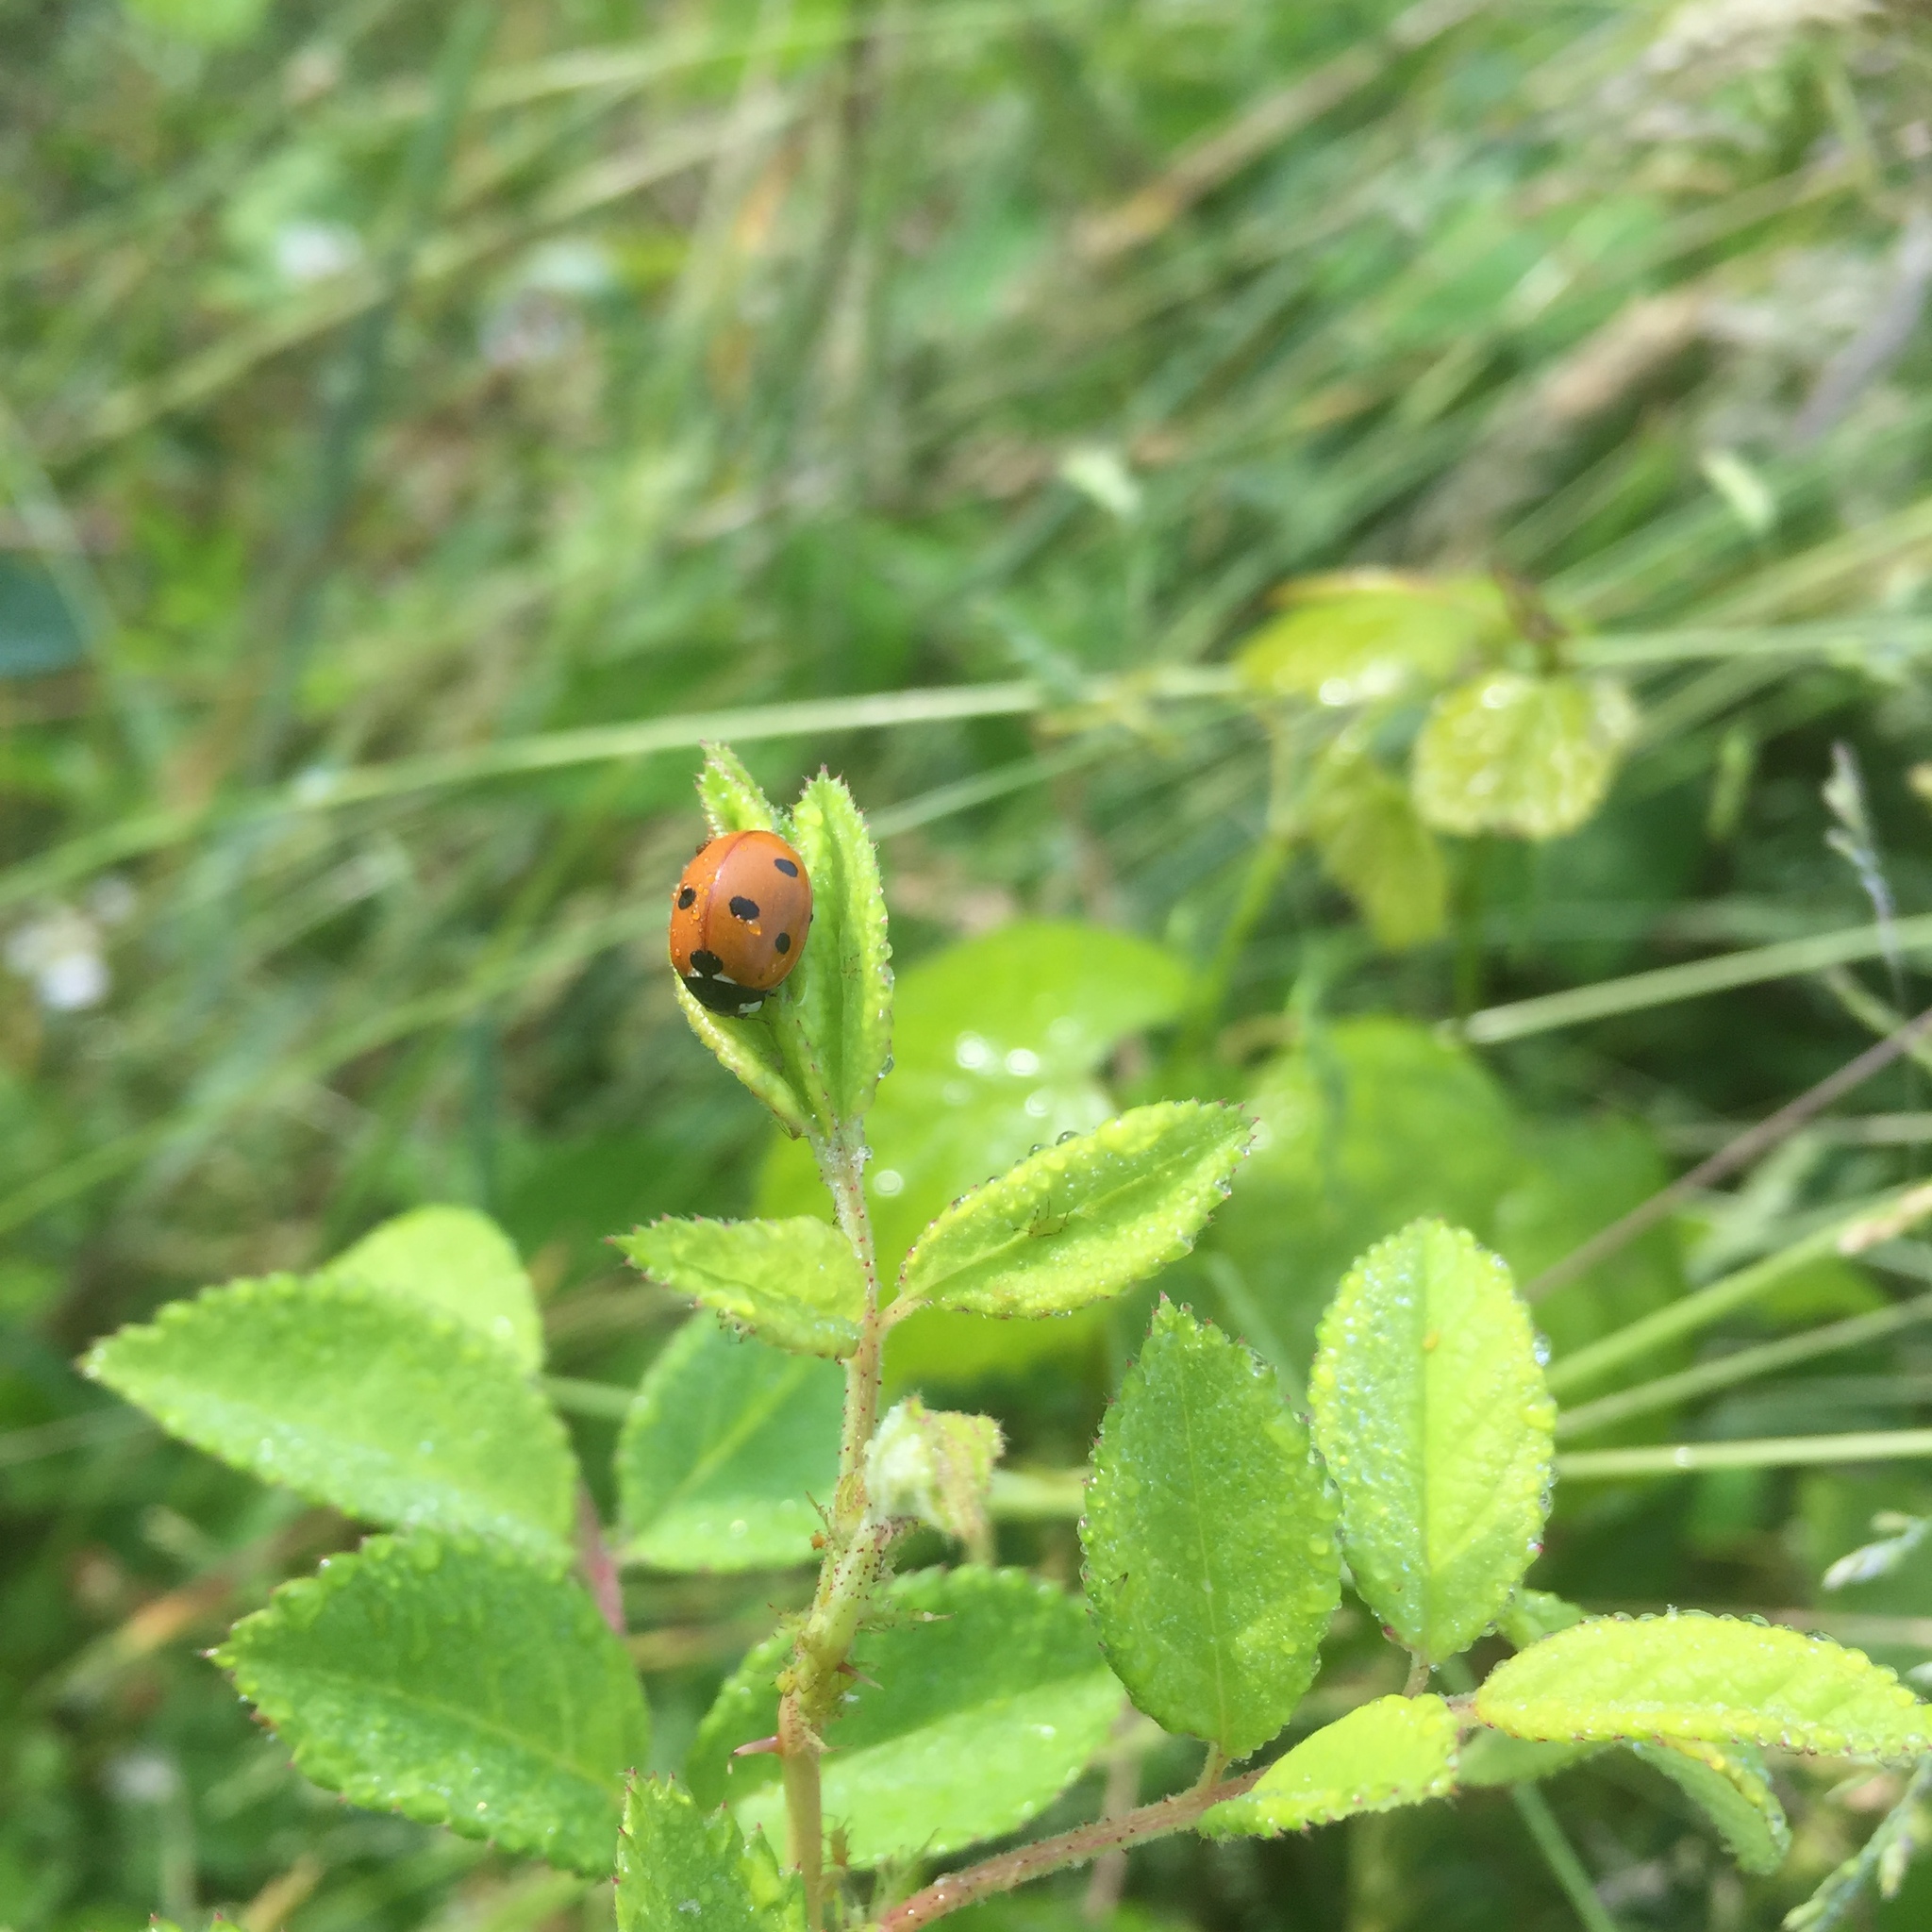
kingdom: Animalia
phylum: Arthropoda
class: Insecta
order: Coleoptera
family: Coccinellidae
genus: Coccinella
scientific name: Coccinella septempunctata
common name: Sevenspotted lady beetle
